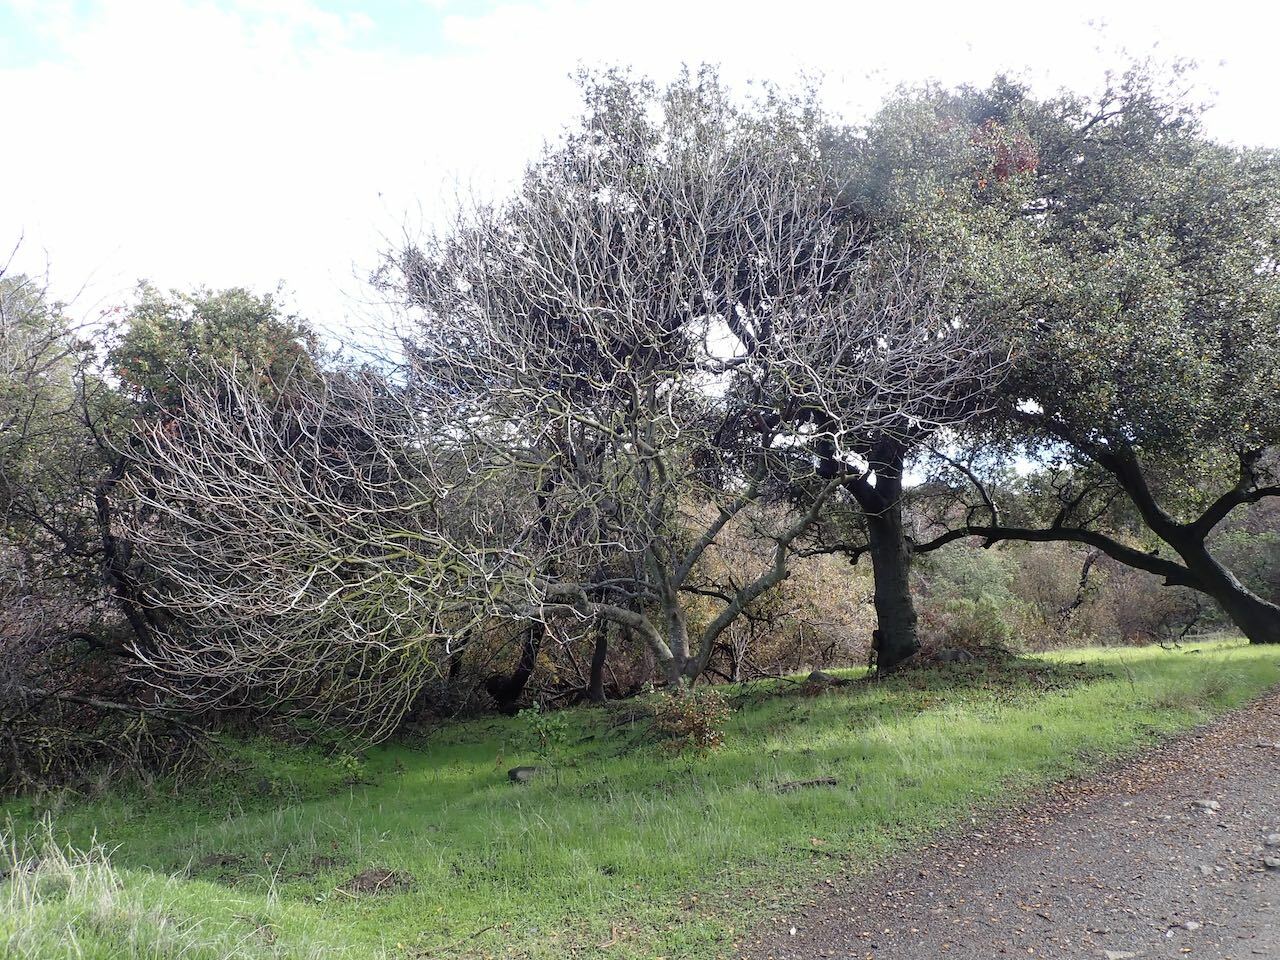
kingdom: Plantae
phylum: Tracheophyta
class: Magnoliopsida
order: Sapindales
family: Sapindaceae
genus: Aesculus
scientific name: Aesculus californica
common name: California buckeye
